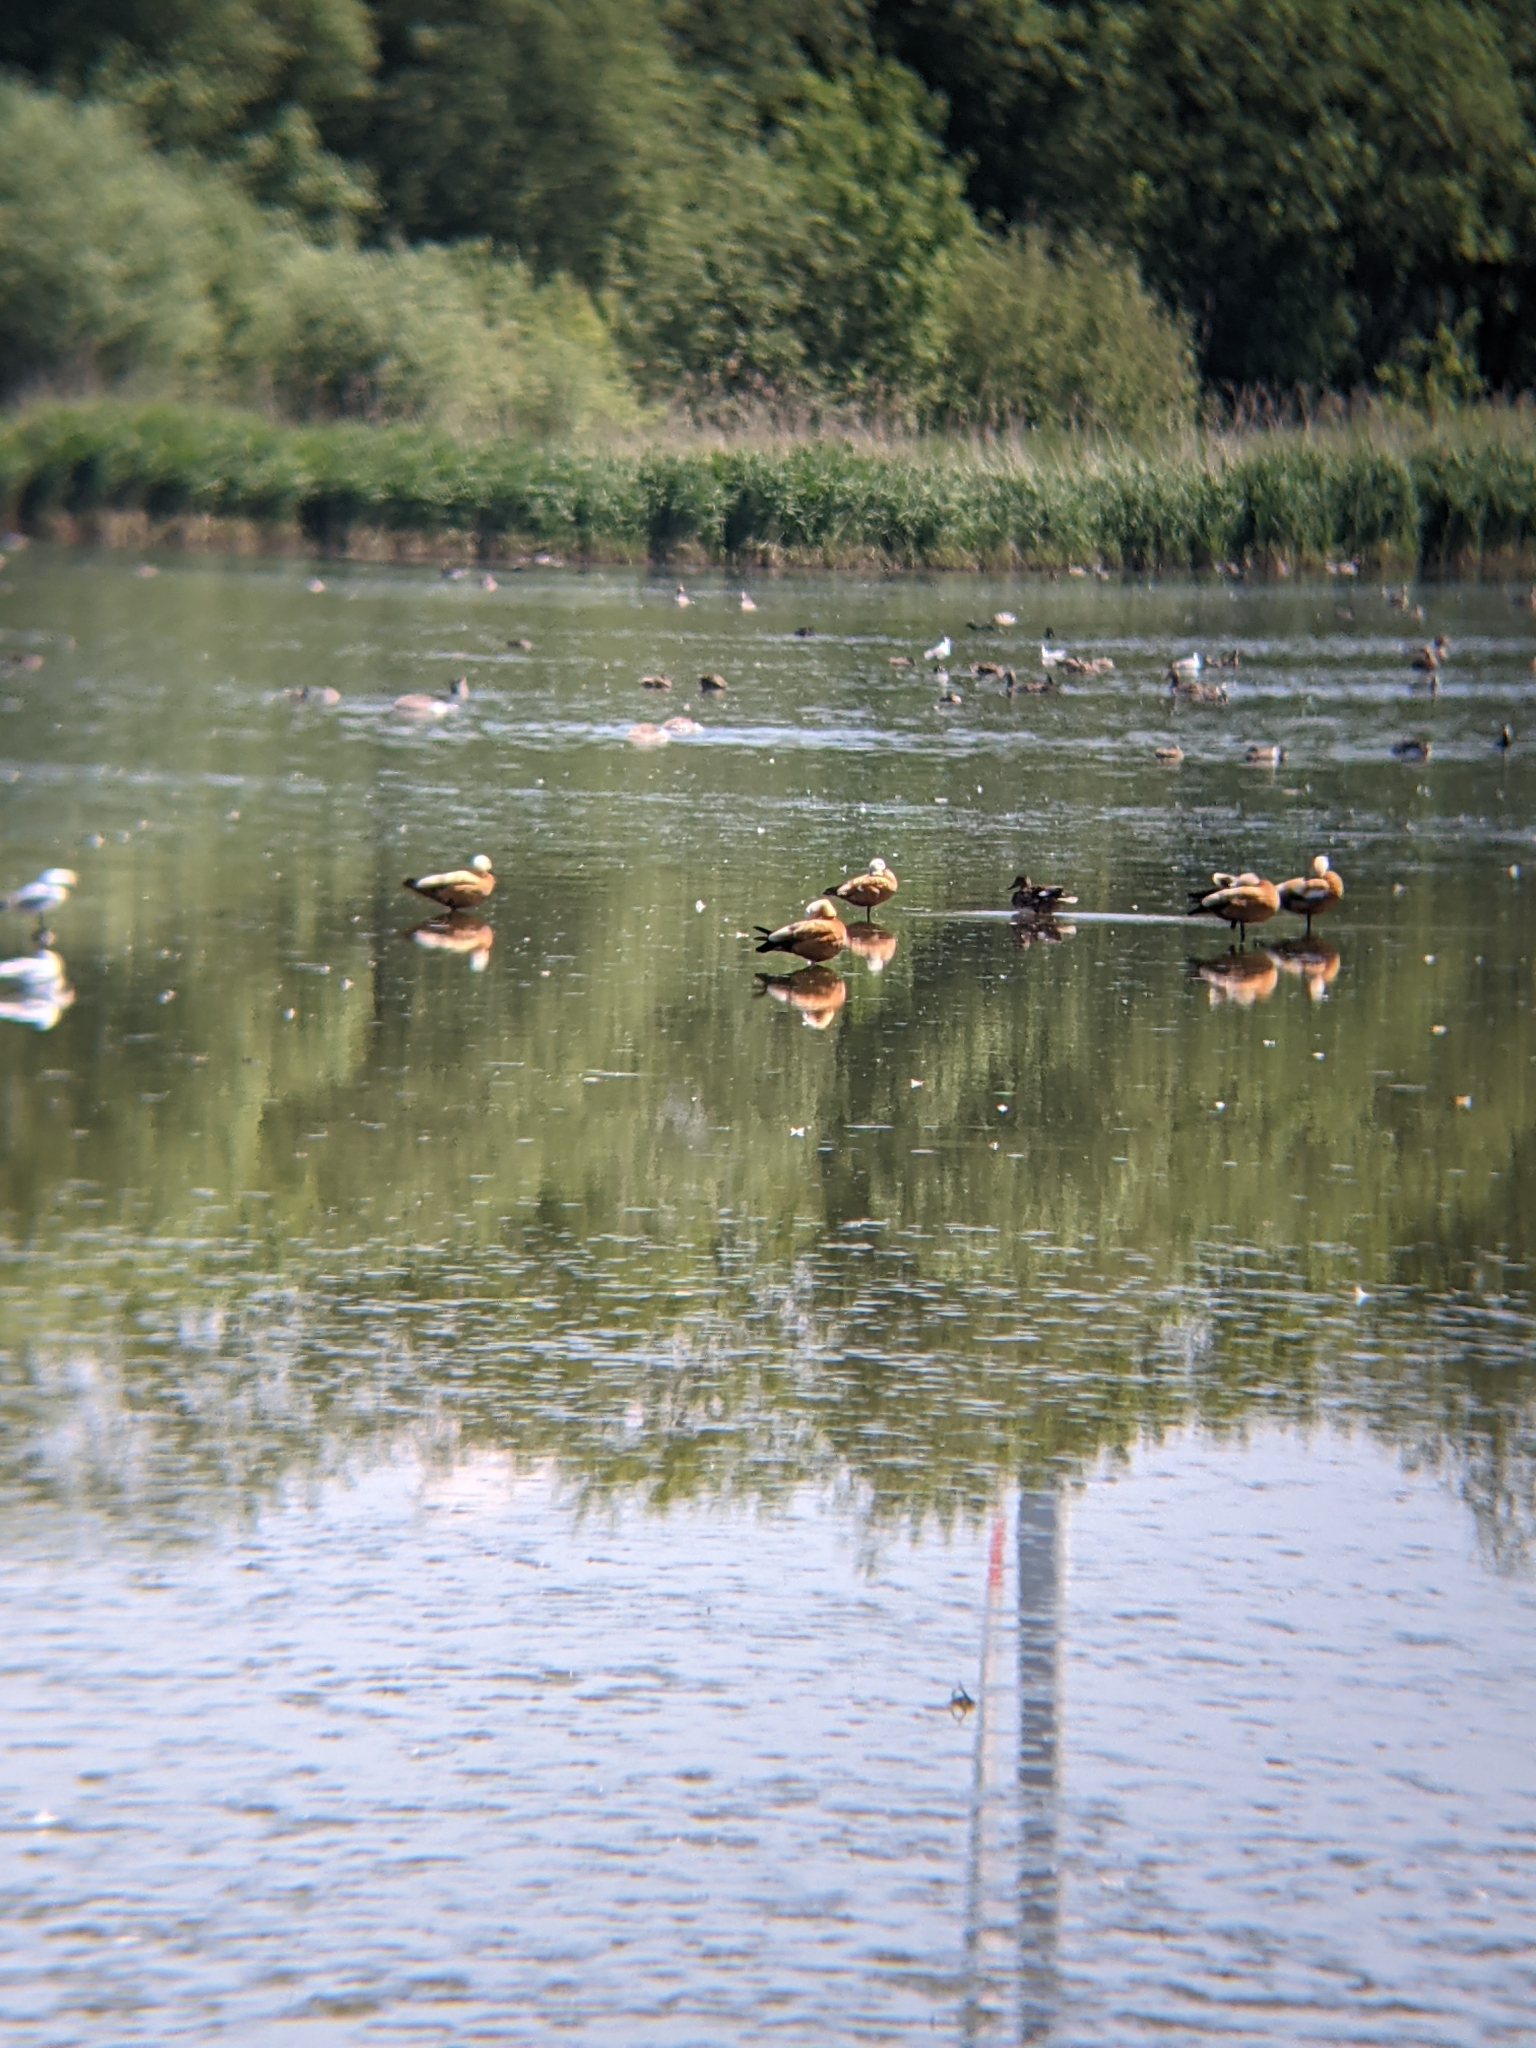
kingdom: Animalia
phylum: Chordata
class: Aves
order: Anseriformes
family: Anatidae
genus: Tadorna
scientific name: Tadorna ferruginea
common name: Ruddy shelduck
